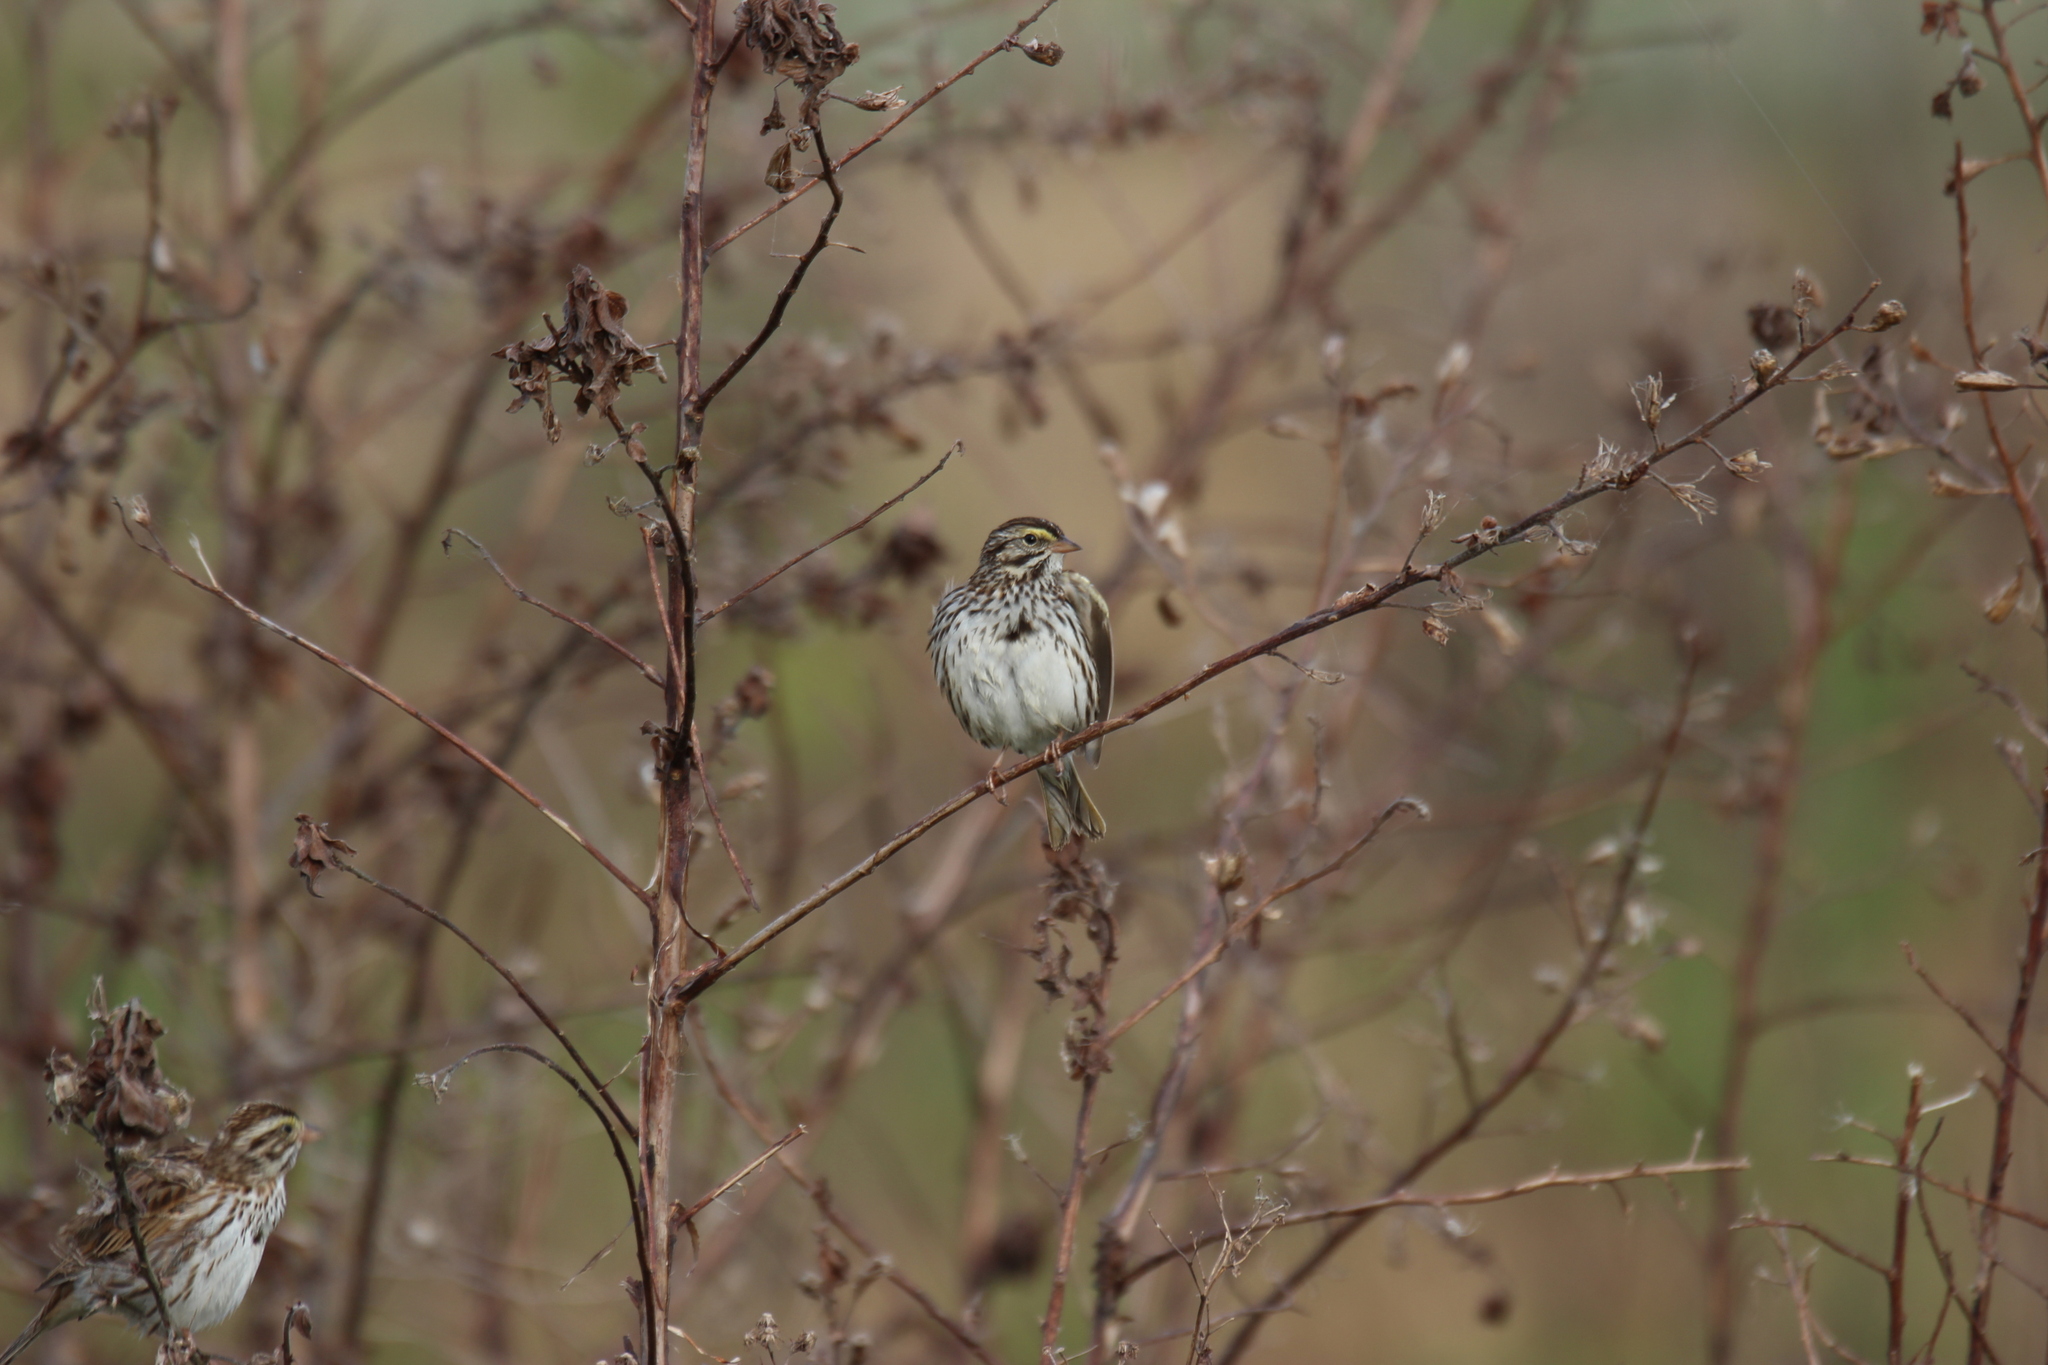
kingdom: Animalia
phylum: Chordata
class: Aves
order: Passeriformes
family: Passerellidae
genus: Passerculus
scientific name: Passerculus sandwichensis
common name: Savannah sparrow
